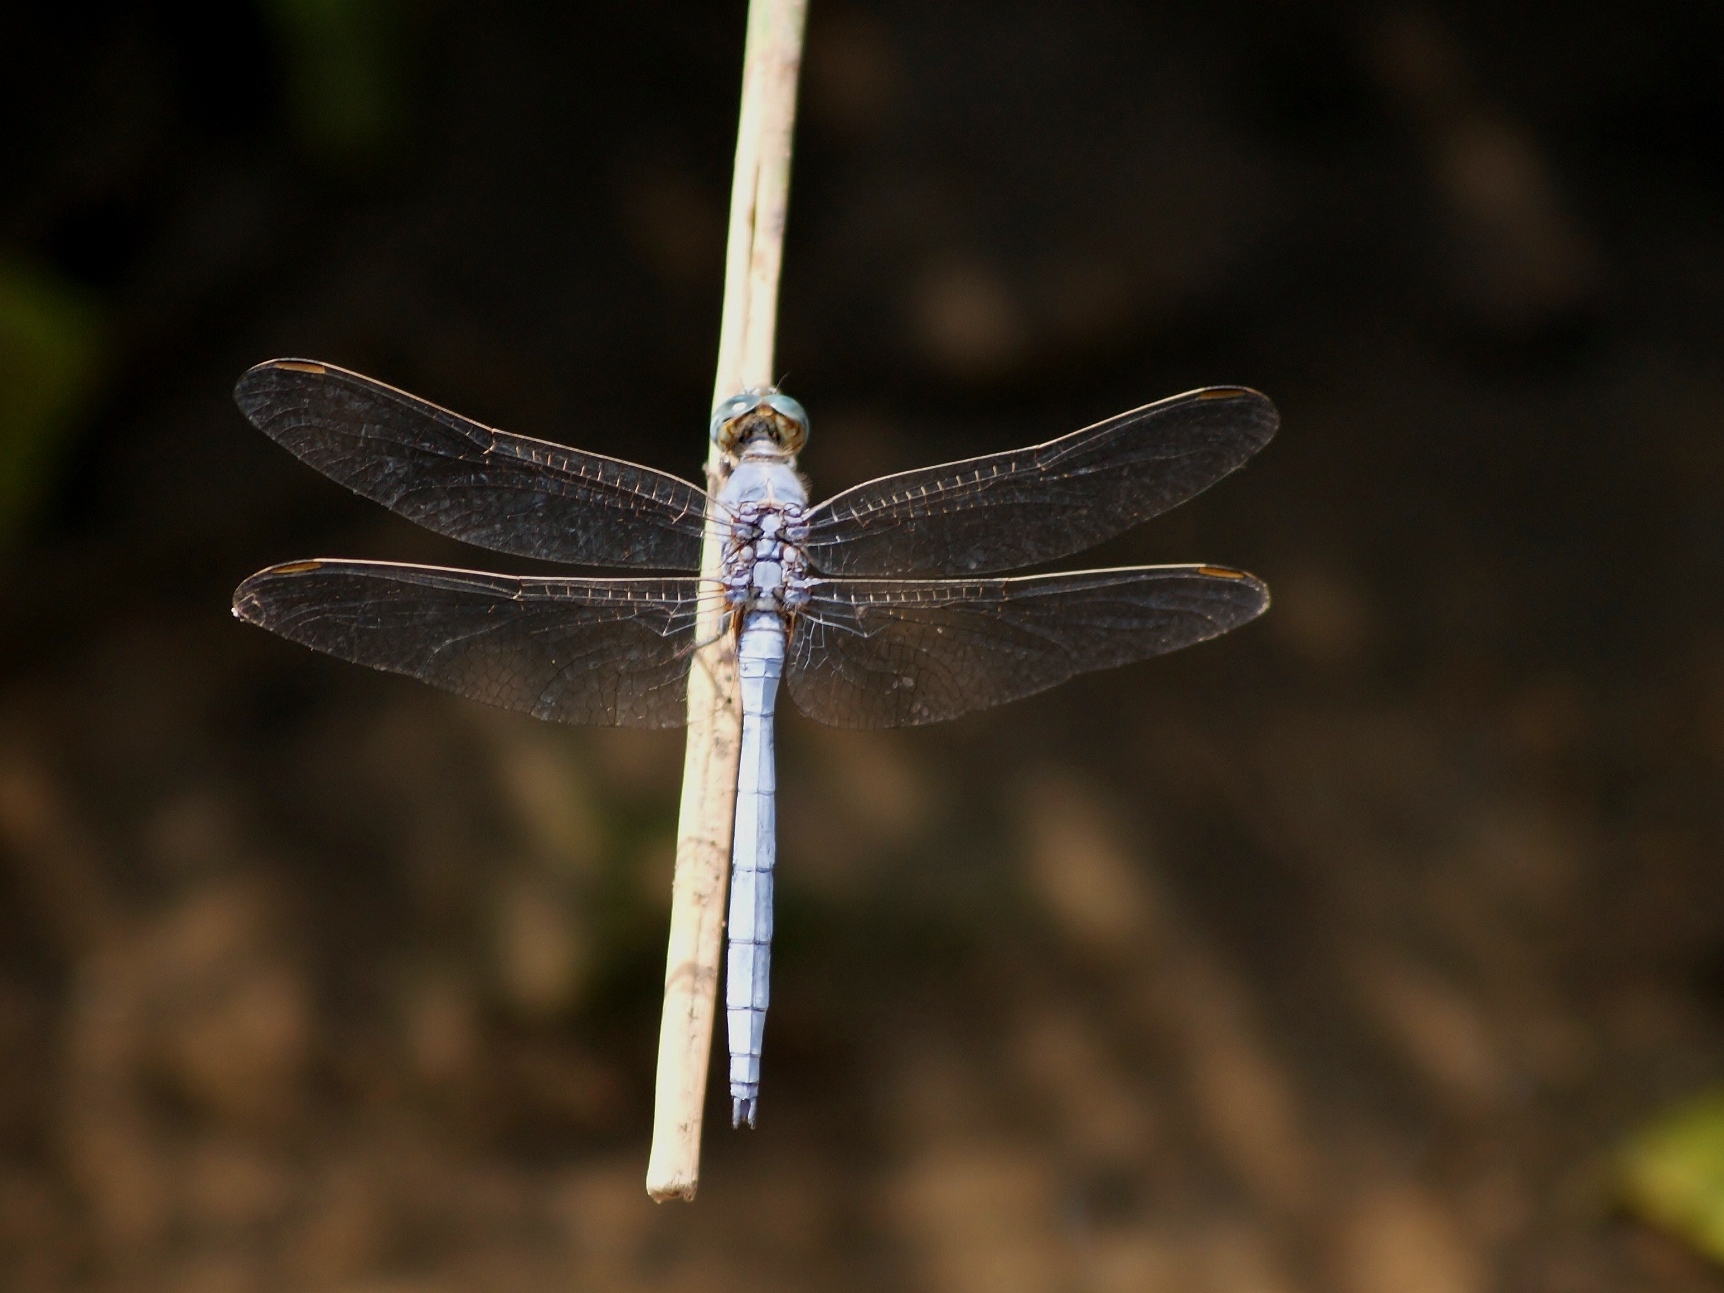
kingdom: Animalia
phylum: Arthropoda
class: Insecta
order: Odonata
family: Libellulidae
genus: Orthetrum
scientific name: Orthetrum chrysostigma
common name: Epaulet skimmer
